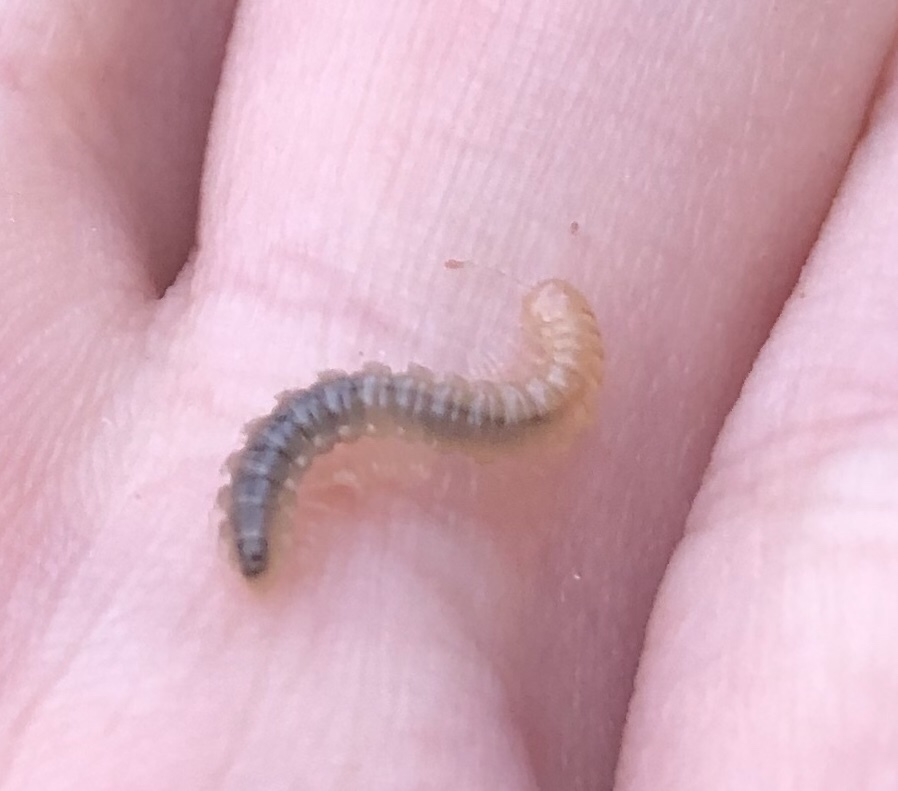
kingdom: Animalia
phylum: Arthropoda
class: Diplopoda
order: Polydesmida
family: Paradoxosomatidae
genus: Oxidus
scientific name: Oxidus gracilis
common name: Greenhouse millipede
